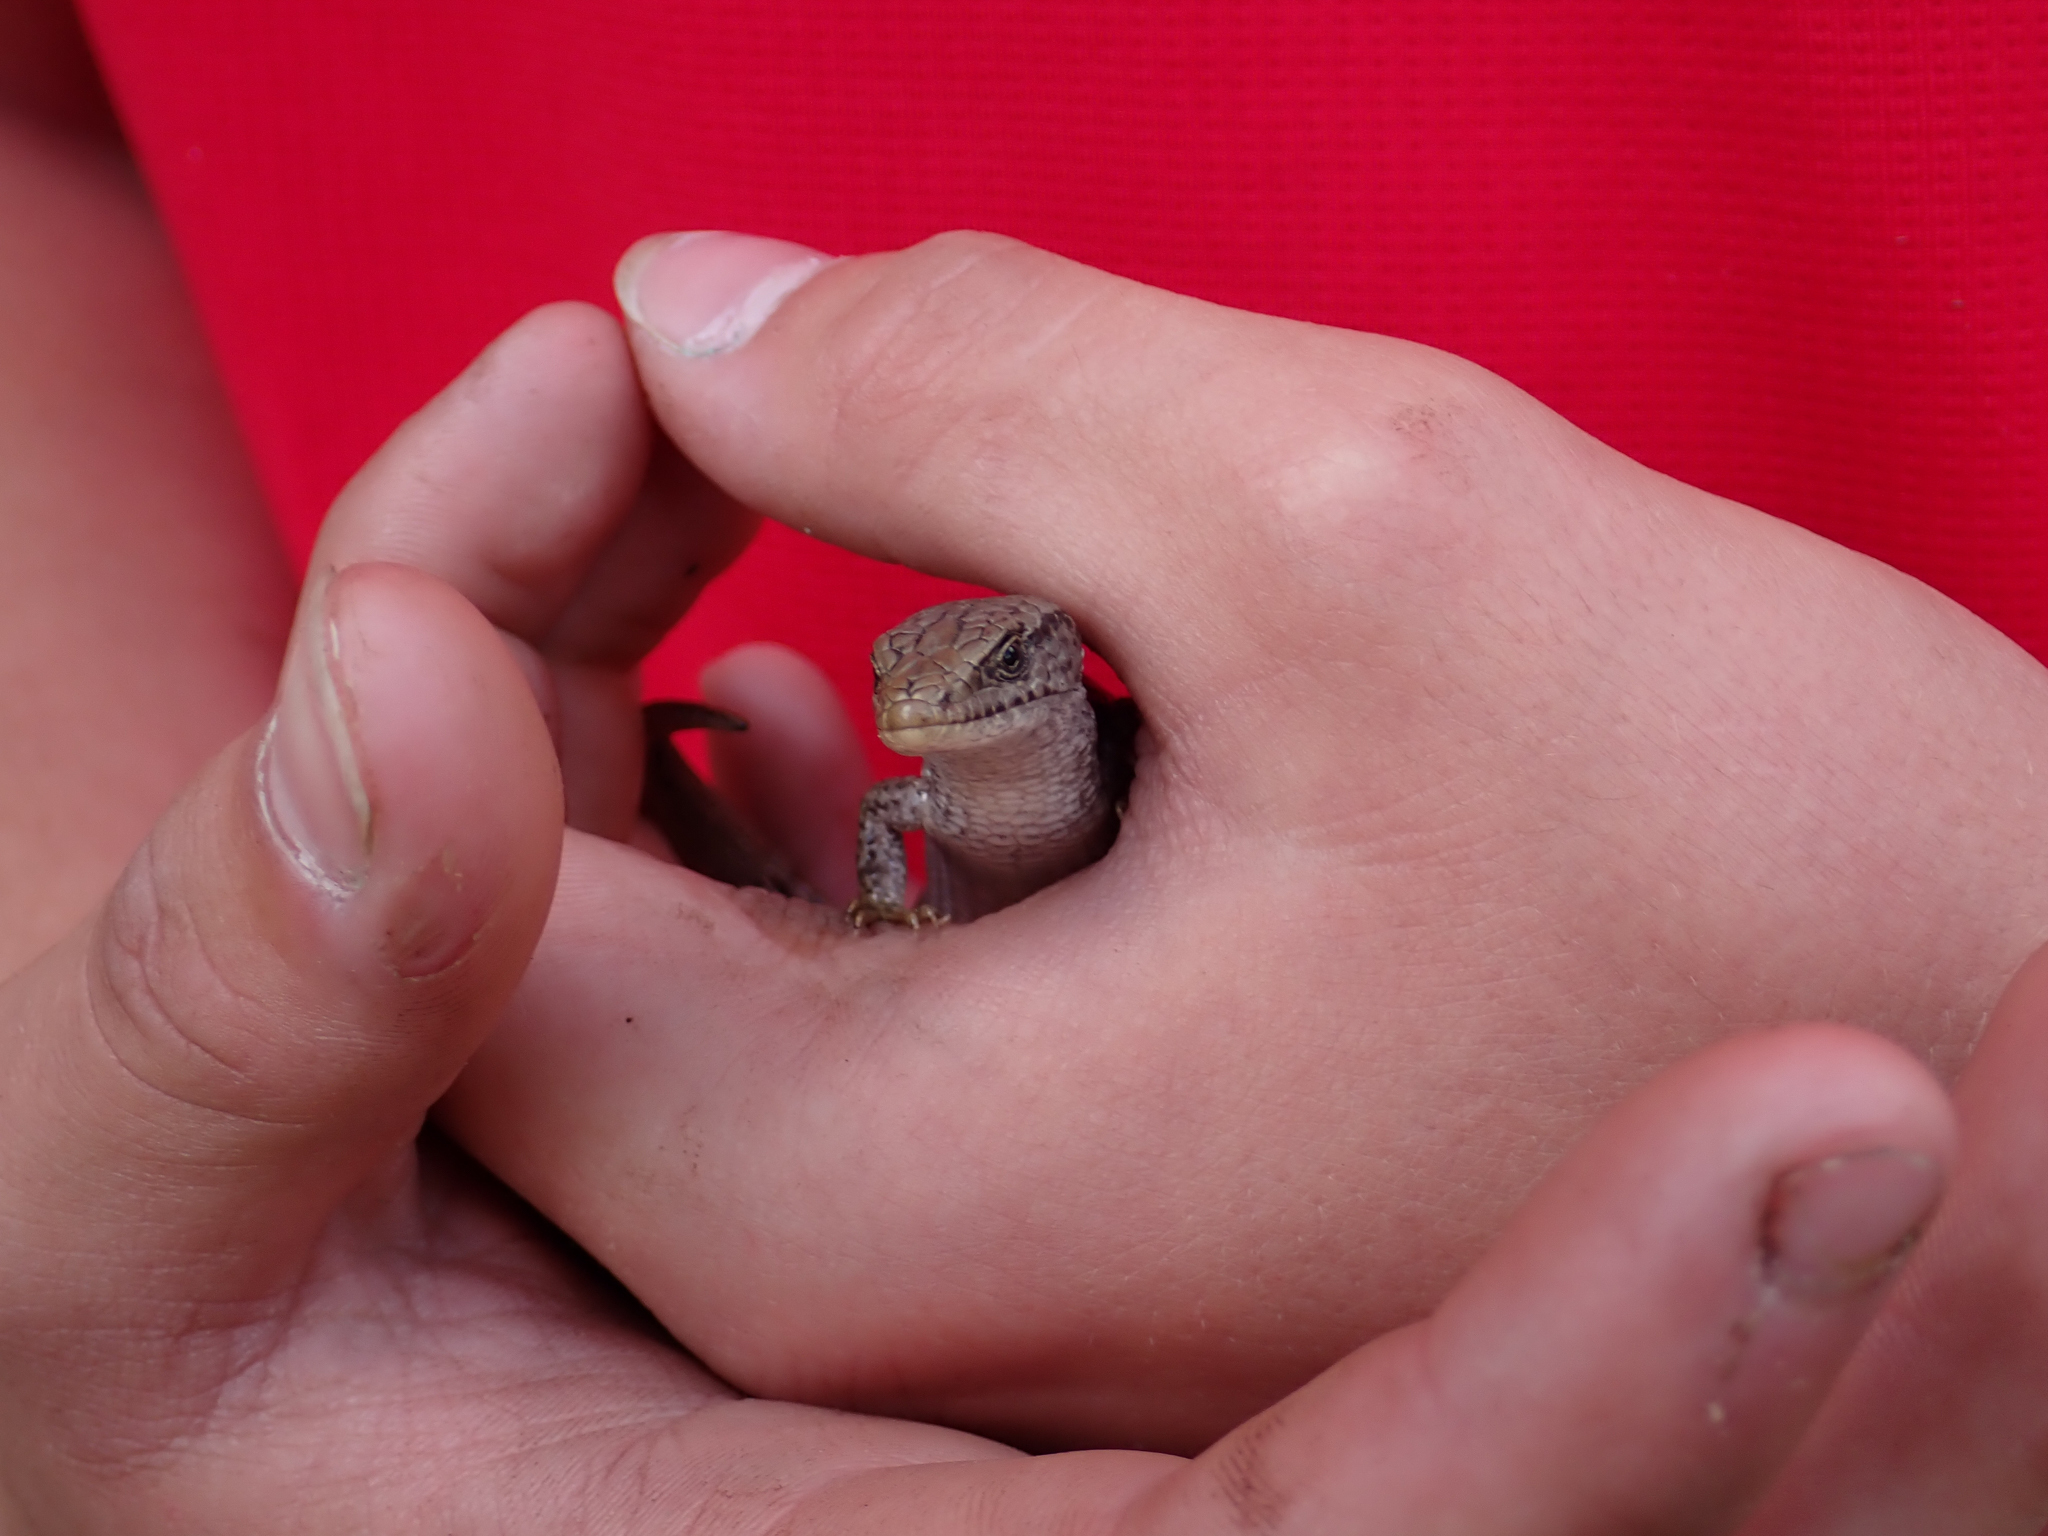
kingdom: Animalia
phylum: Chordata
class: Squamata
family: Anguidae
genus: Elgaria
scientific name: Elgaria coerulea
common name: Northern alligator lizard
